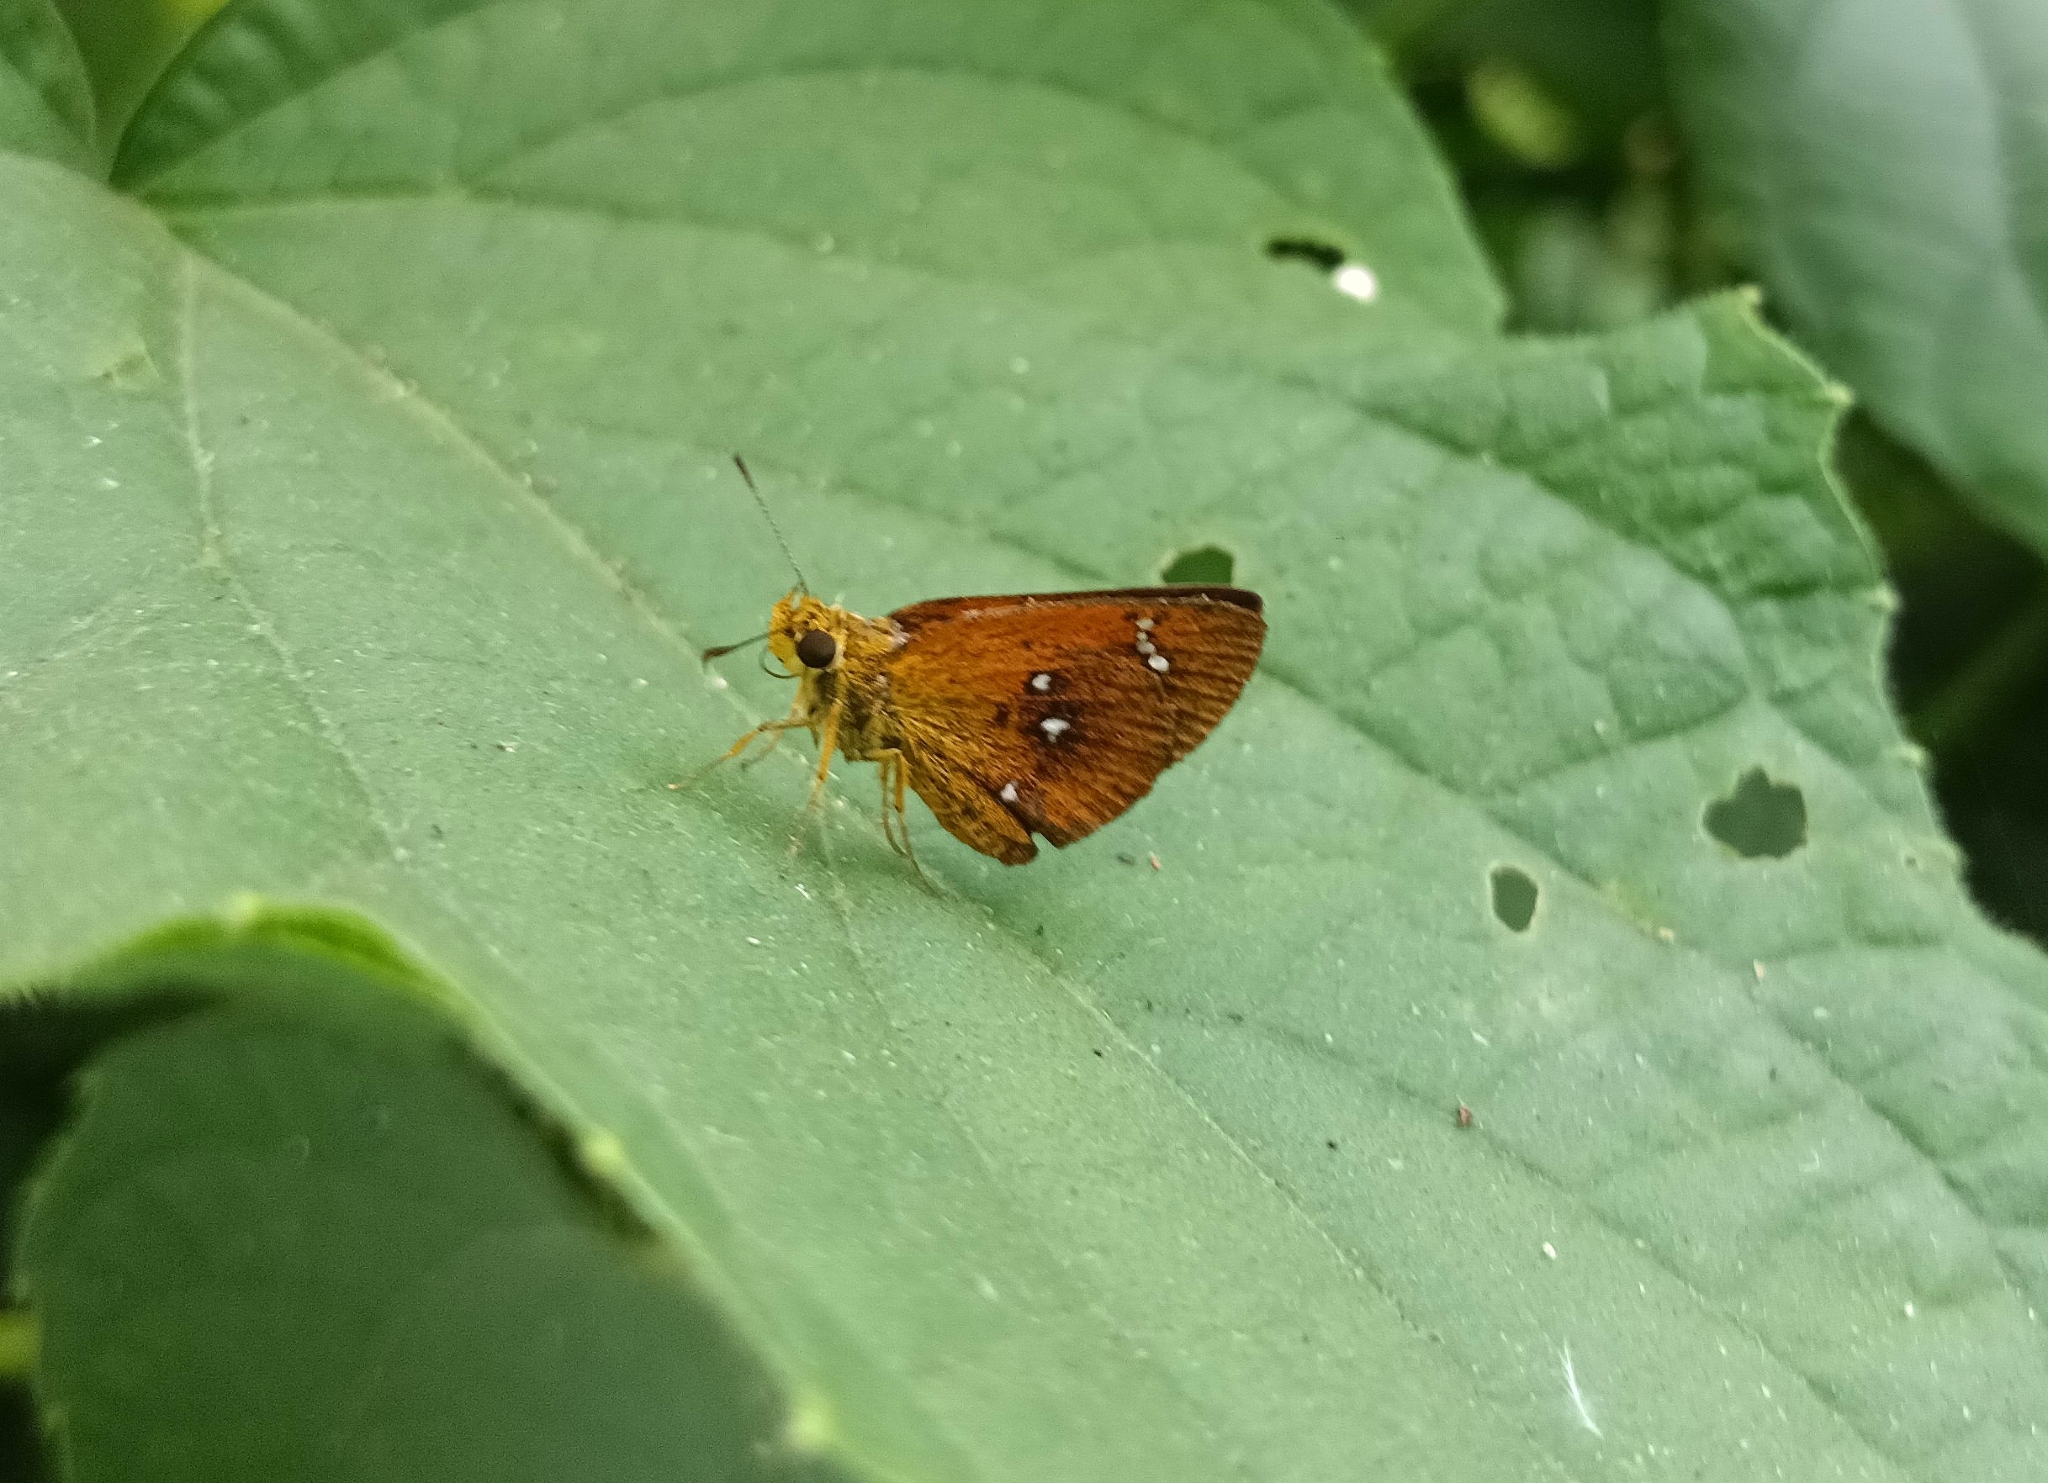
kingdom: Animalia
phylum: Arthropoda
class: Insecta
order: Lepidoptera
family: Hesperiidae
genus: Iambrix
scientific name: Iambrix salsala
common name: Chestnut bob
